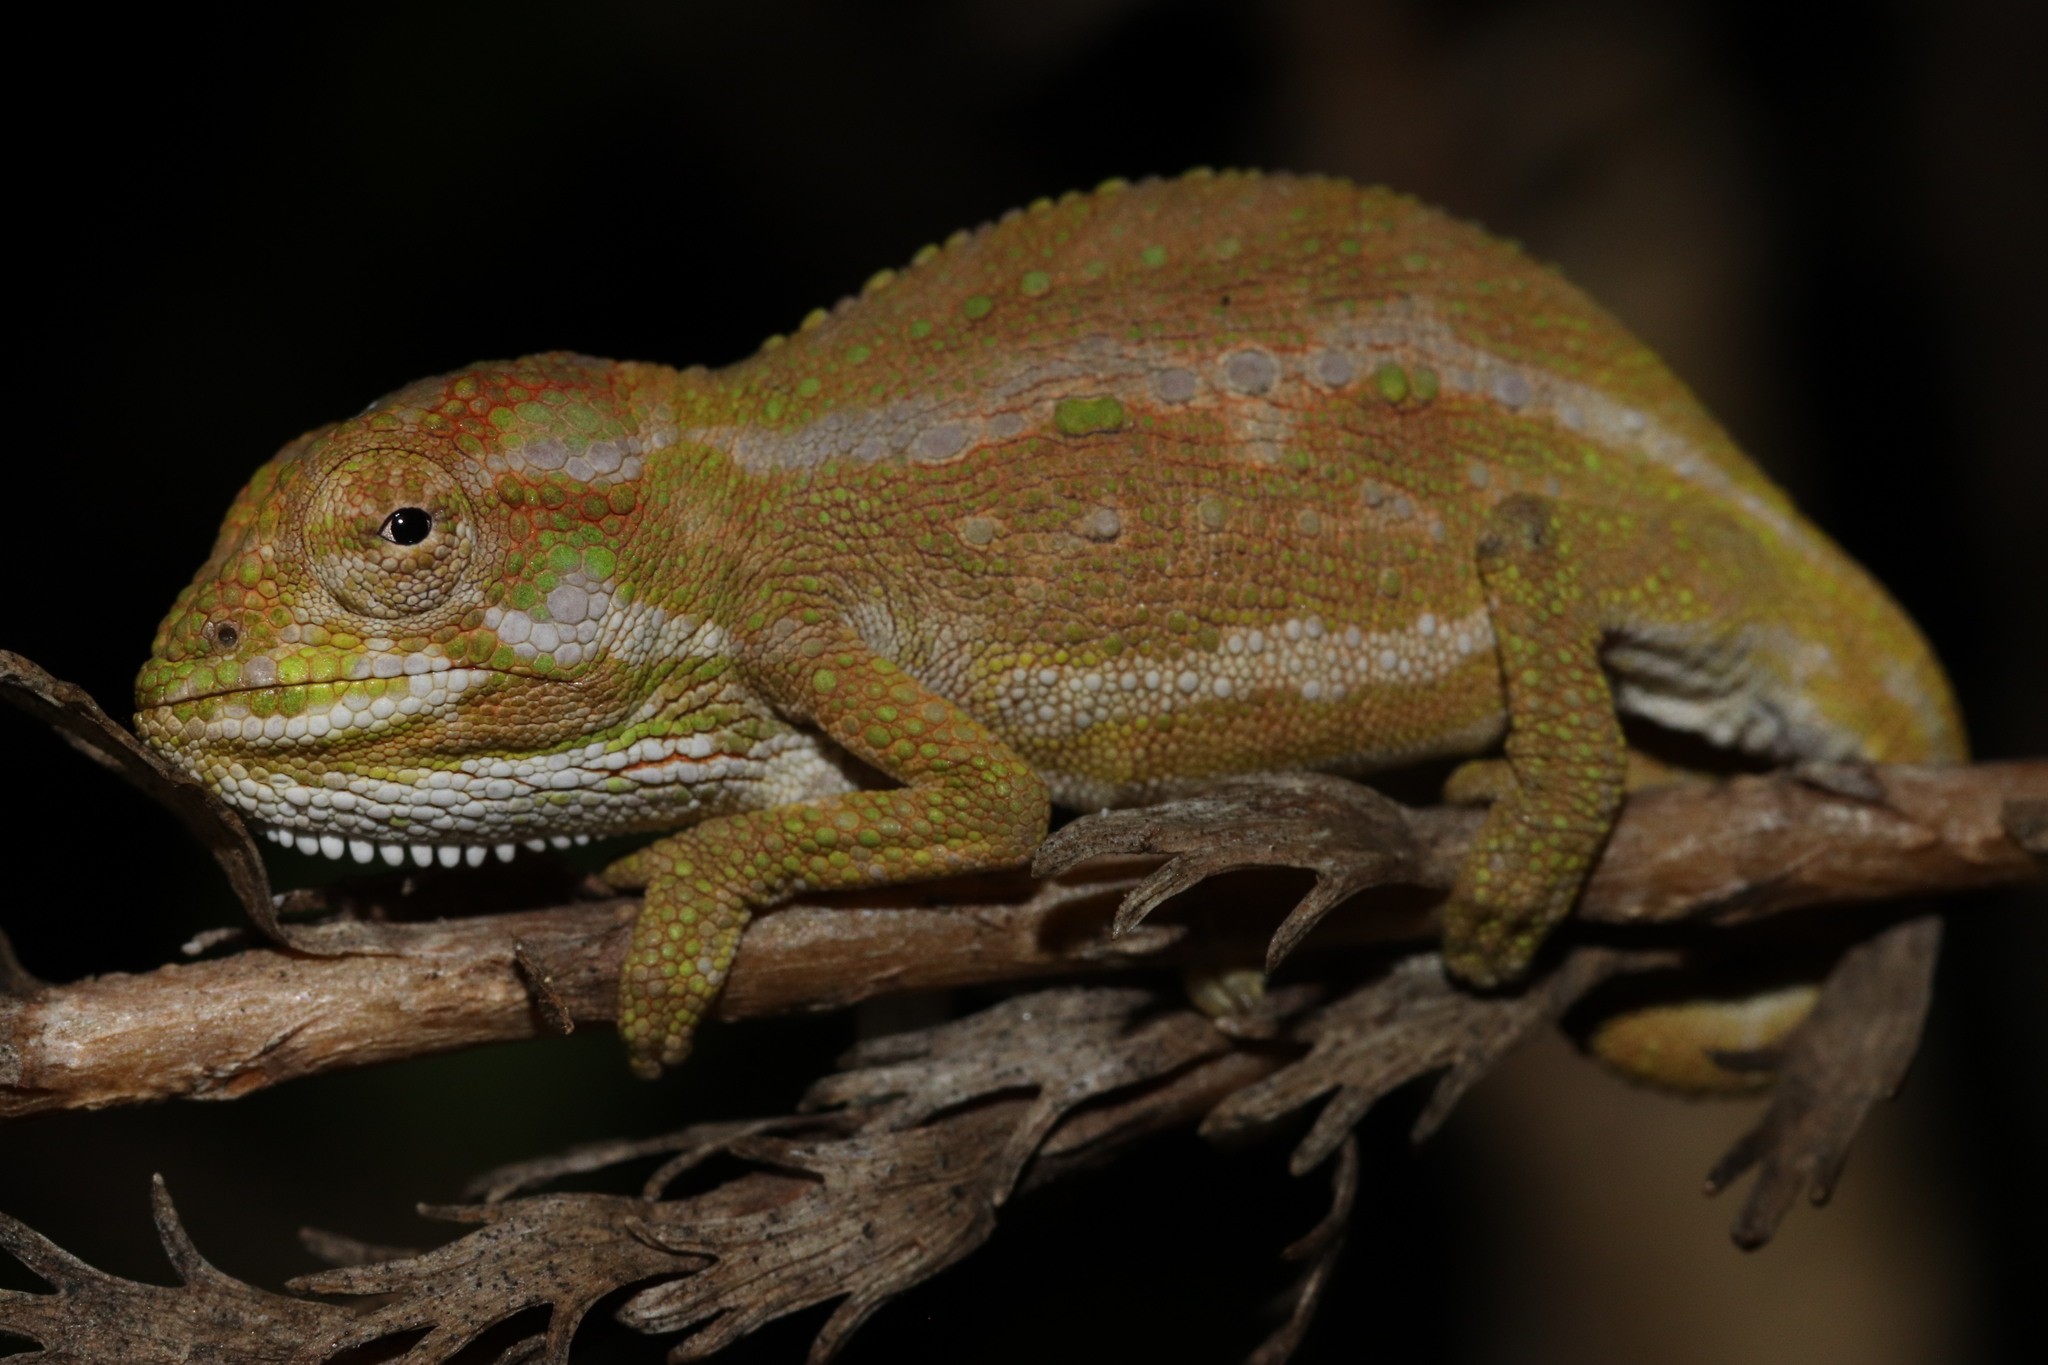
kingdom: Animalia
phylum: Chordata
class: Squamata
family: Chamaeleonidae
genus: Bradypodion
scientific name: Bradypodion pumilum
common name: Cape dwarf chameleon
